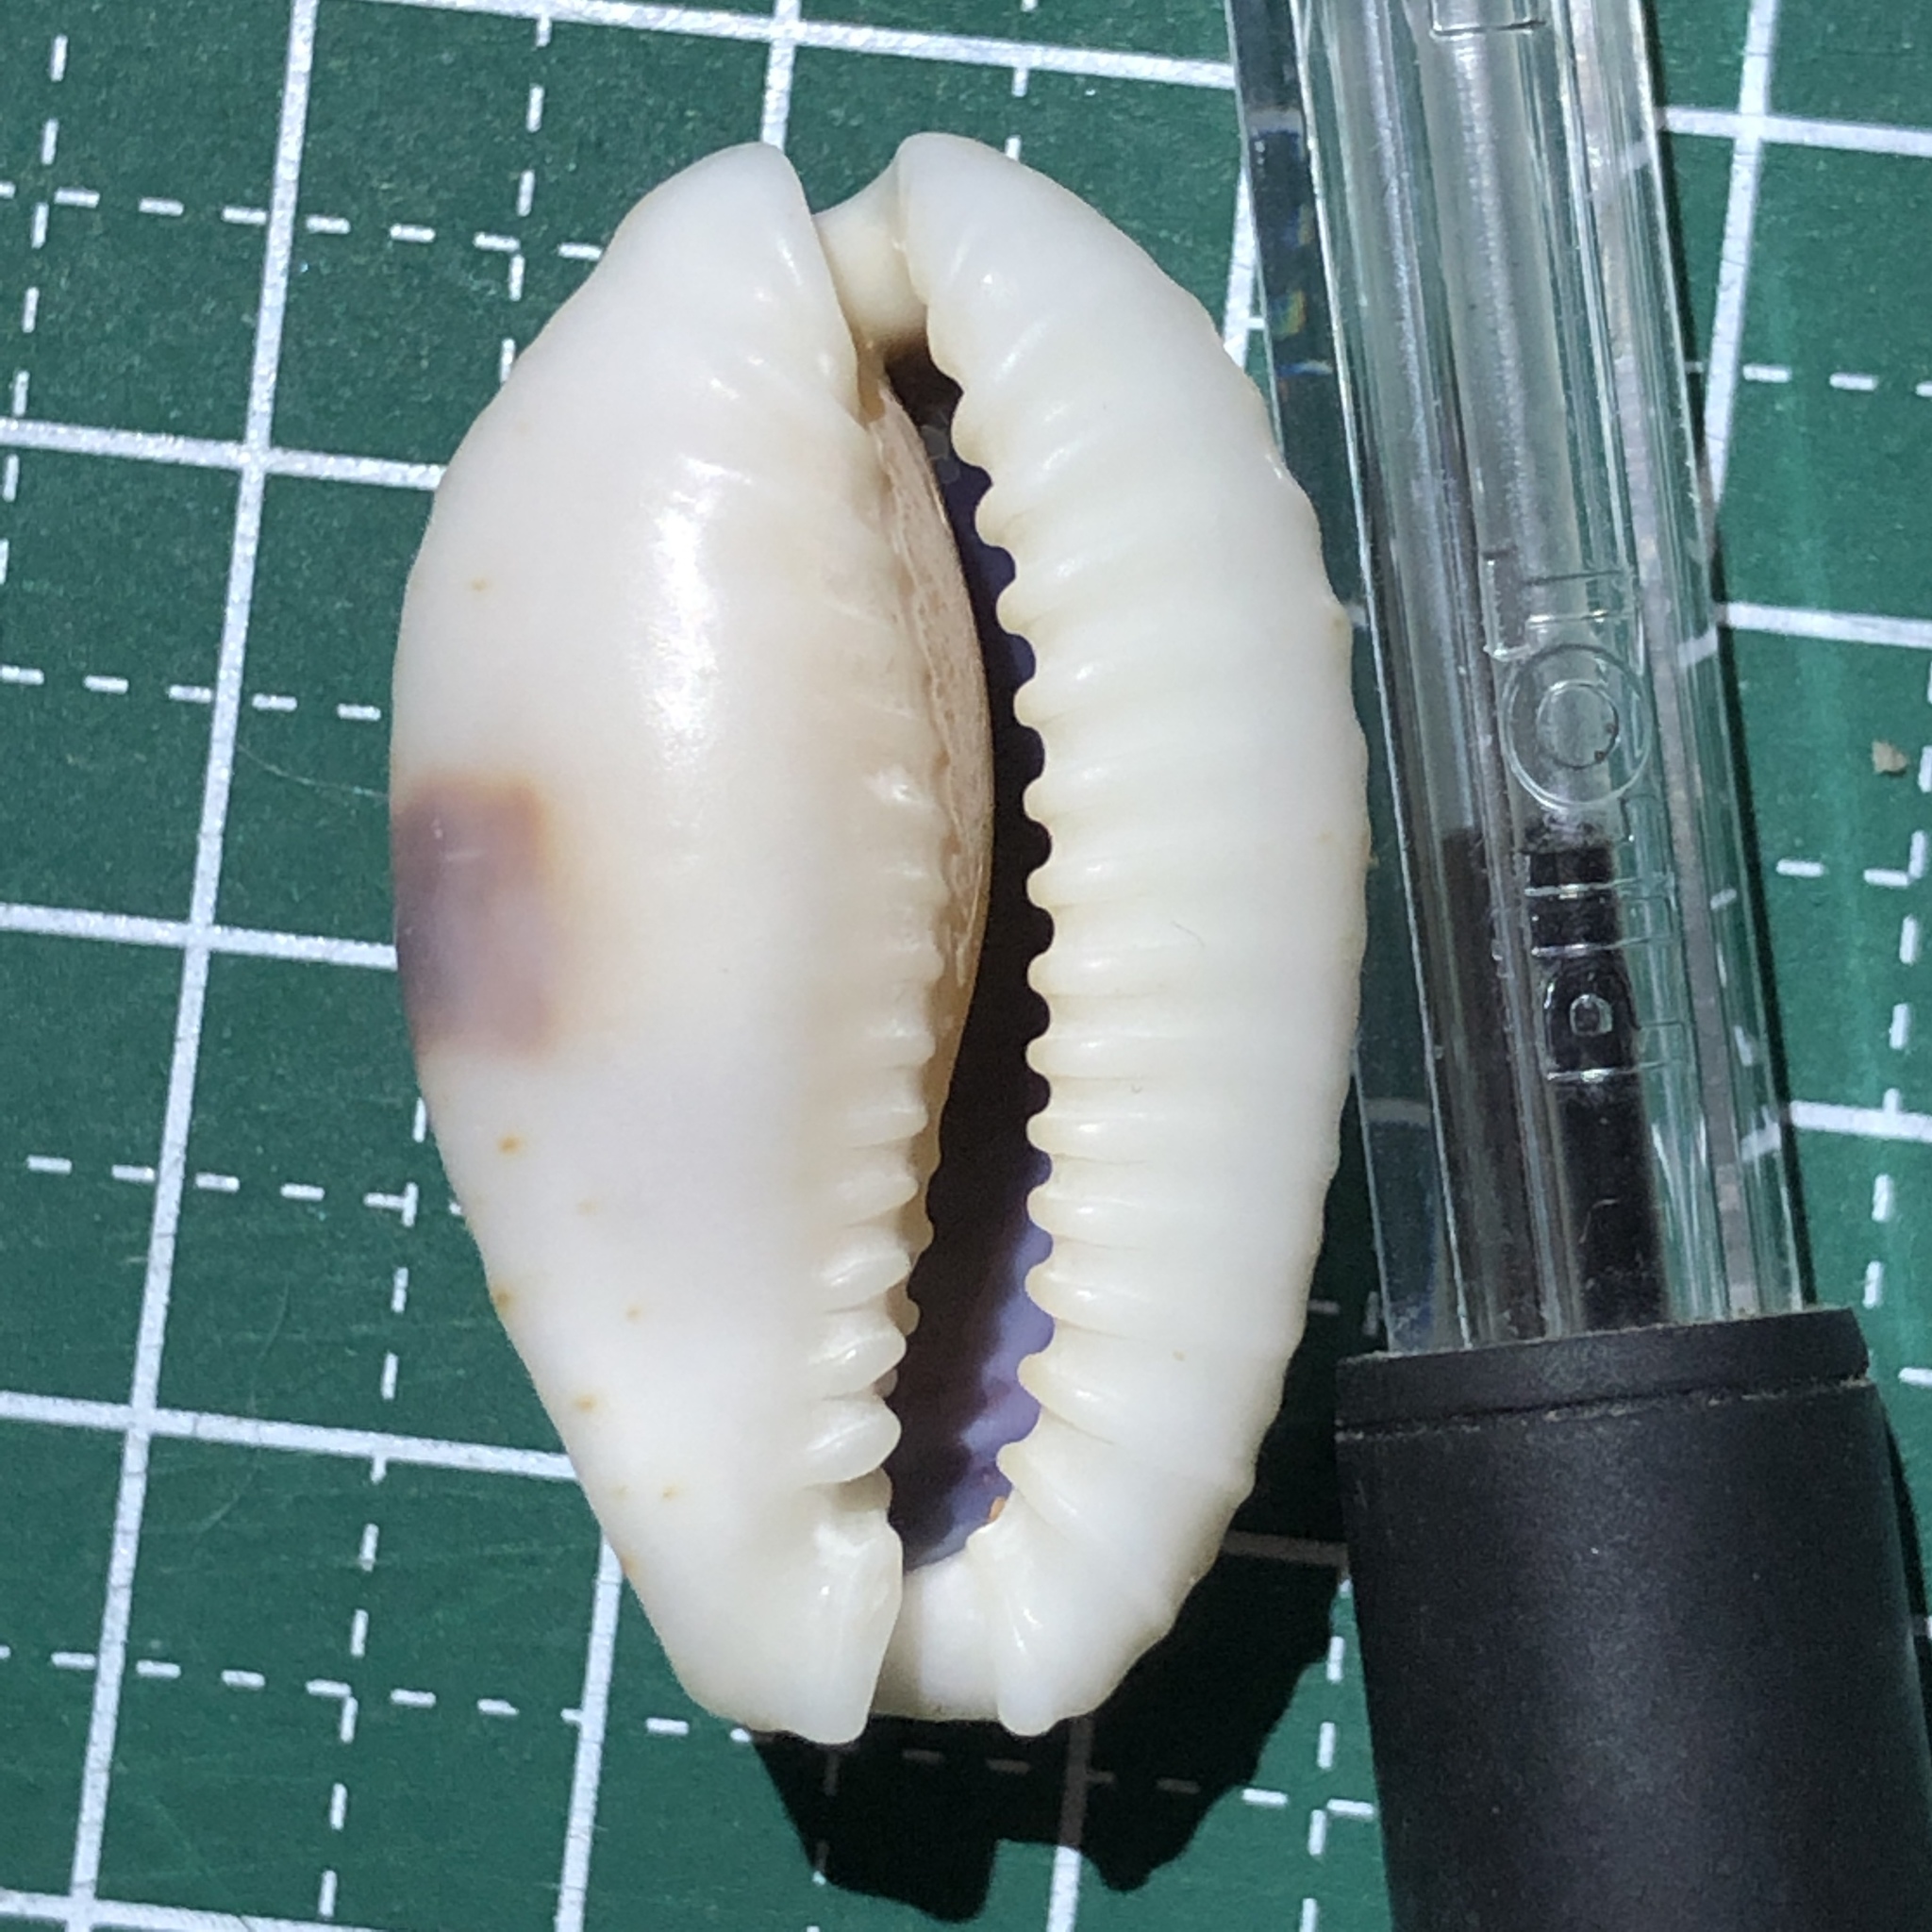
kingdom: Animalia
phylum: Mollusca
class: Gastropoda
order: Littorinimorpha
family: Cypraeidae
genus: Naria
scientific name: Naria erosa
